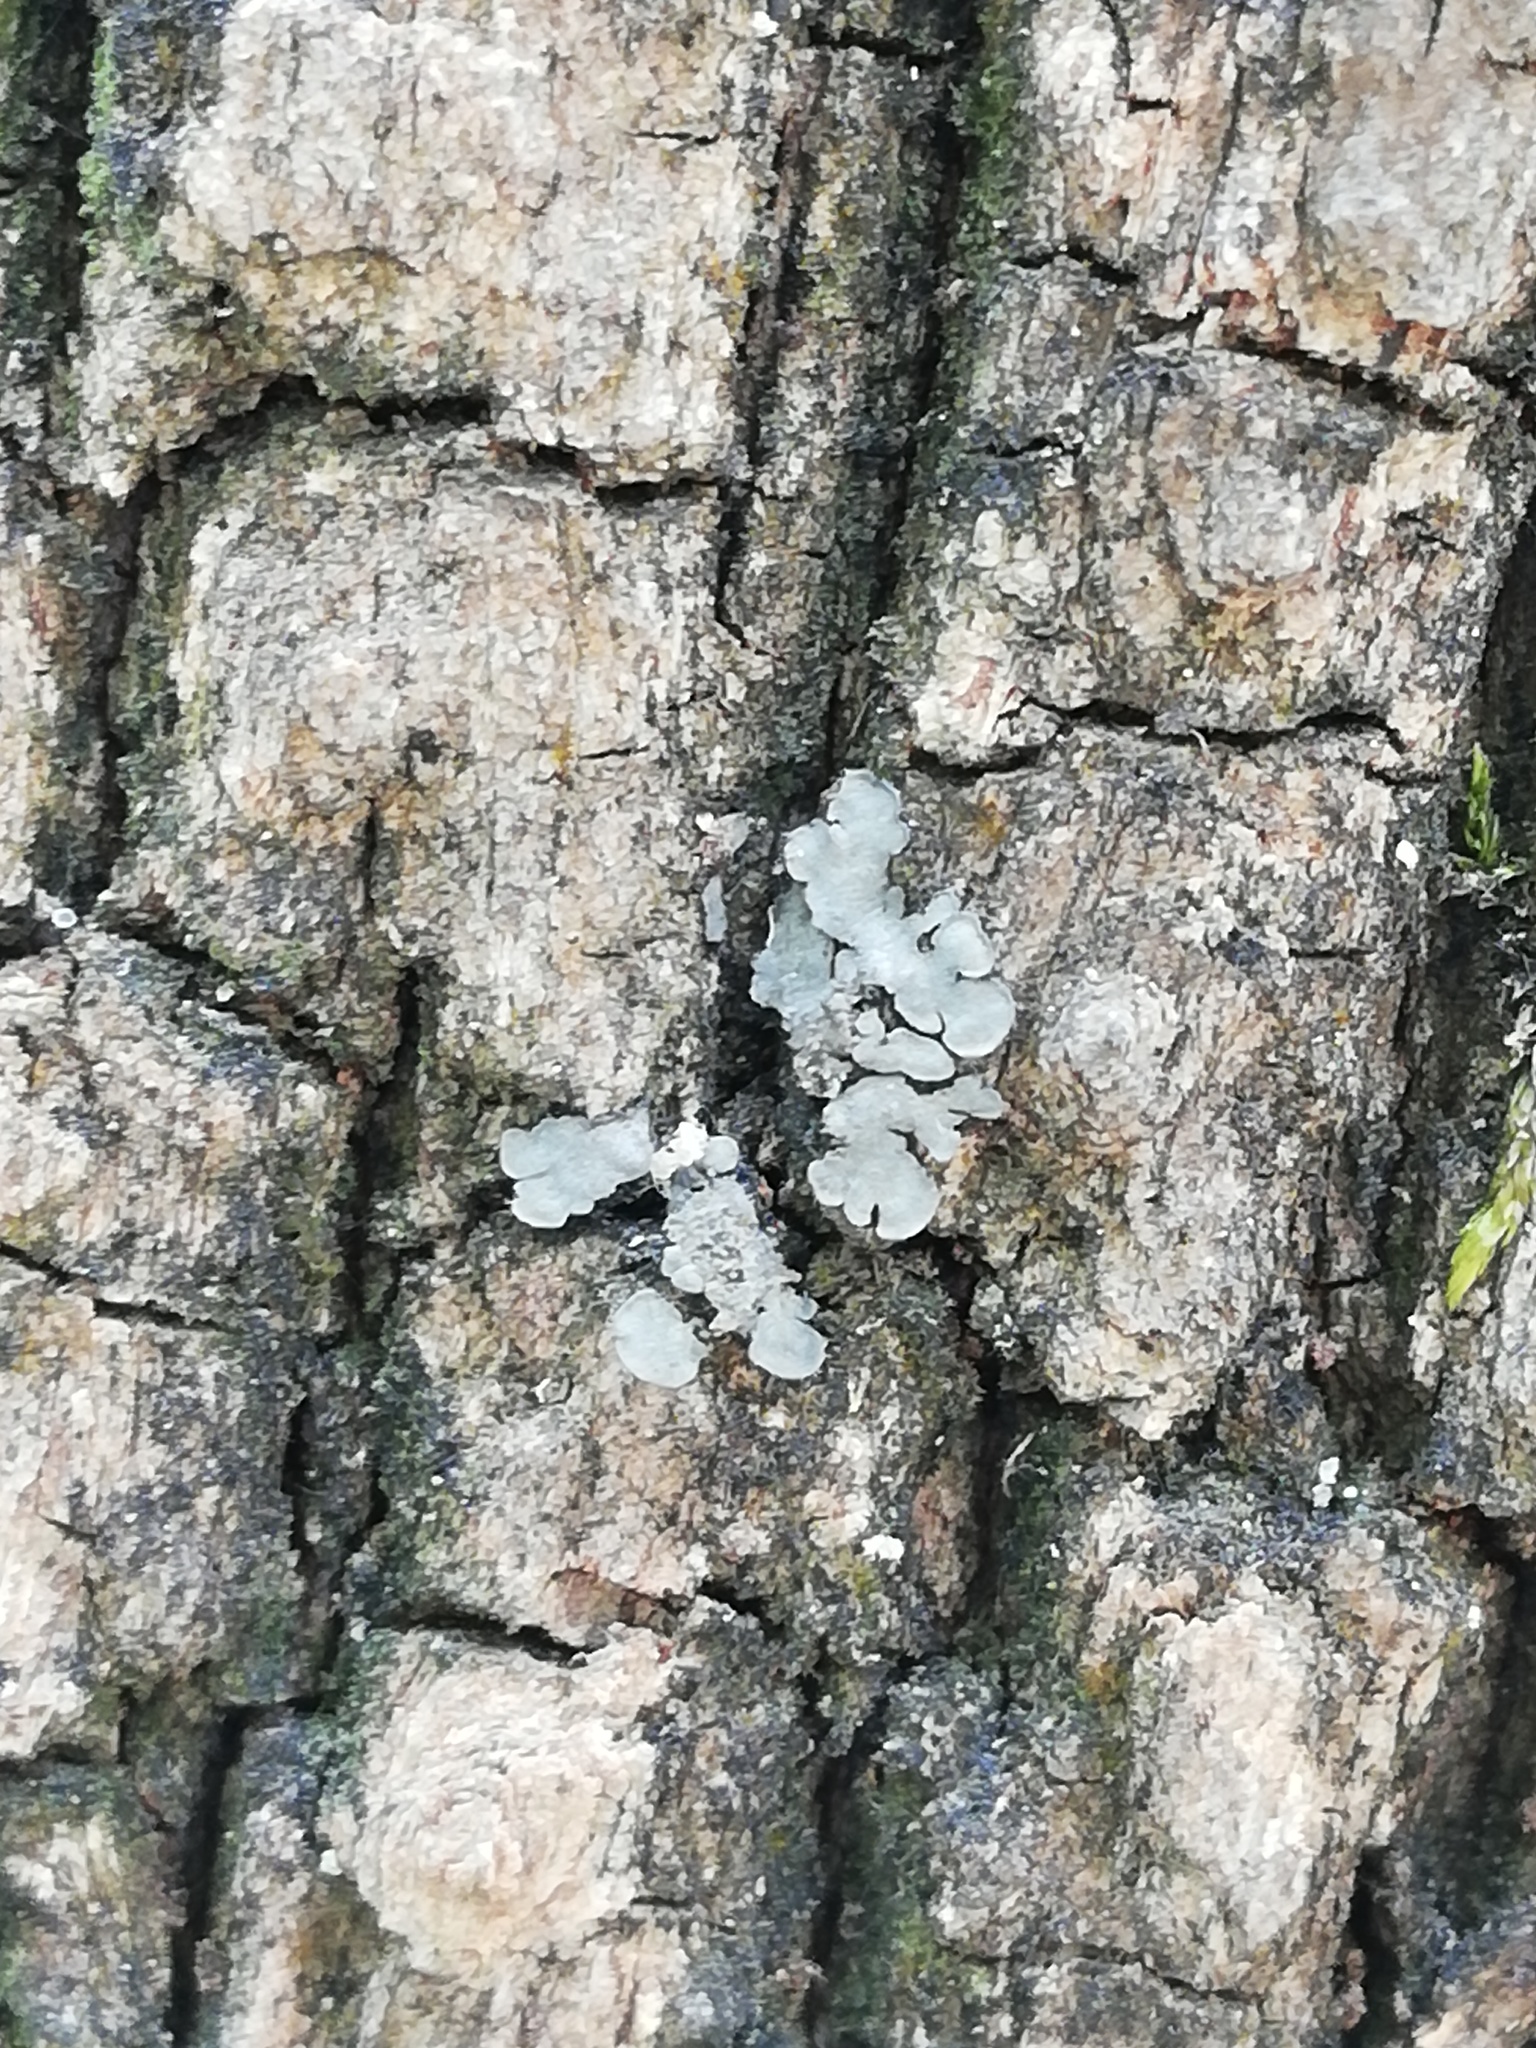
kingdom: Fungi
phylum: Ascomycota
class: Lecanoromycetes
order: Peltigerales
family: Coccocarpiaceae
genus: Coccocarpia
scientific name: Coccocarpia palmicola
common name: Salted shell lichen
